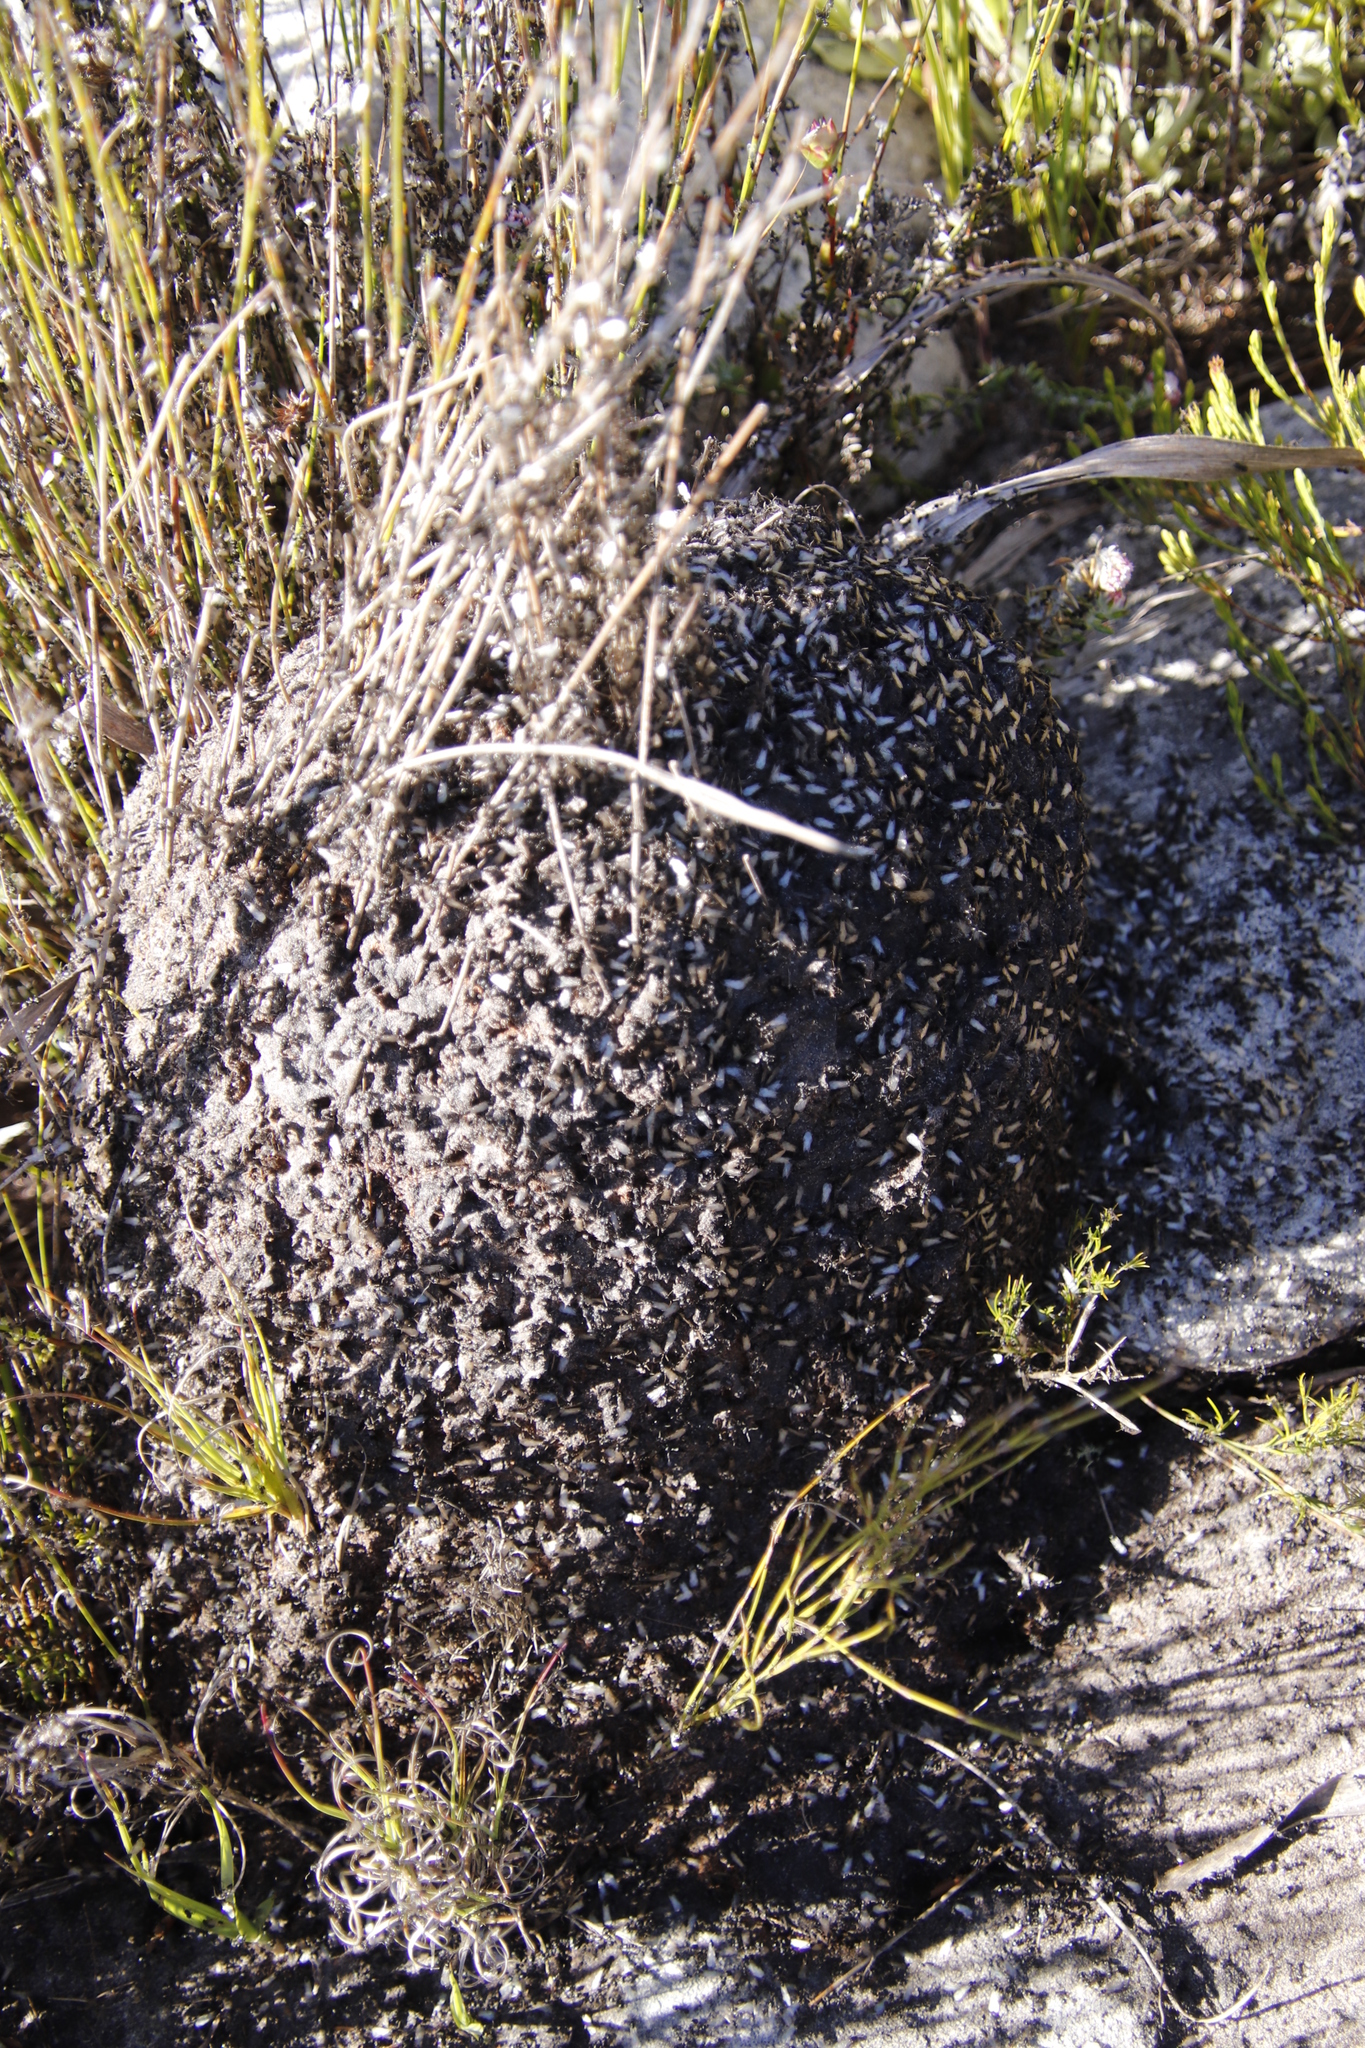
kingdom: Animalia
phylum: Arthropoda
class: Insecta
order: Hymenoptera
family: Formicidae
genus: Crematogaster
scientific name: Crematogaster peringueyi
